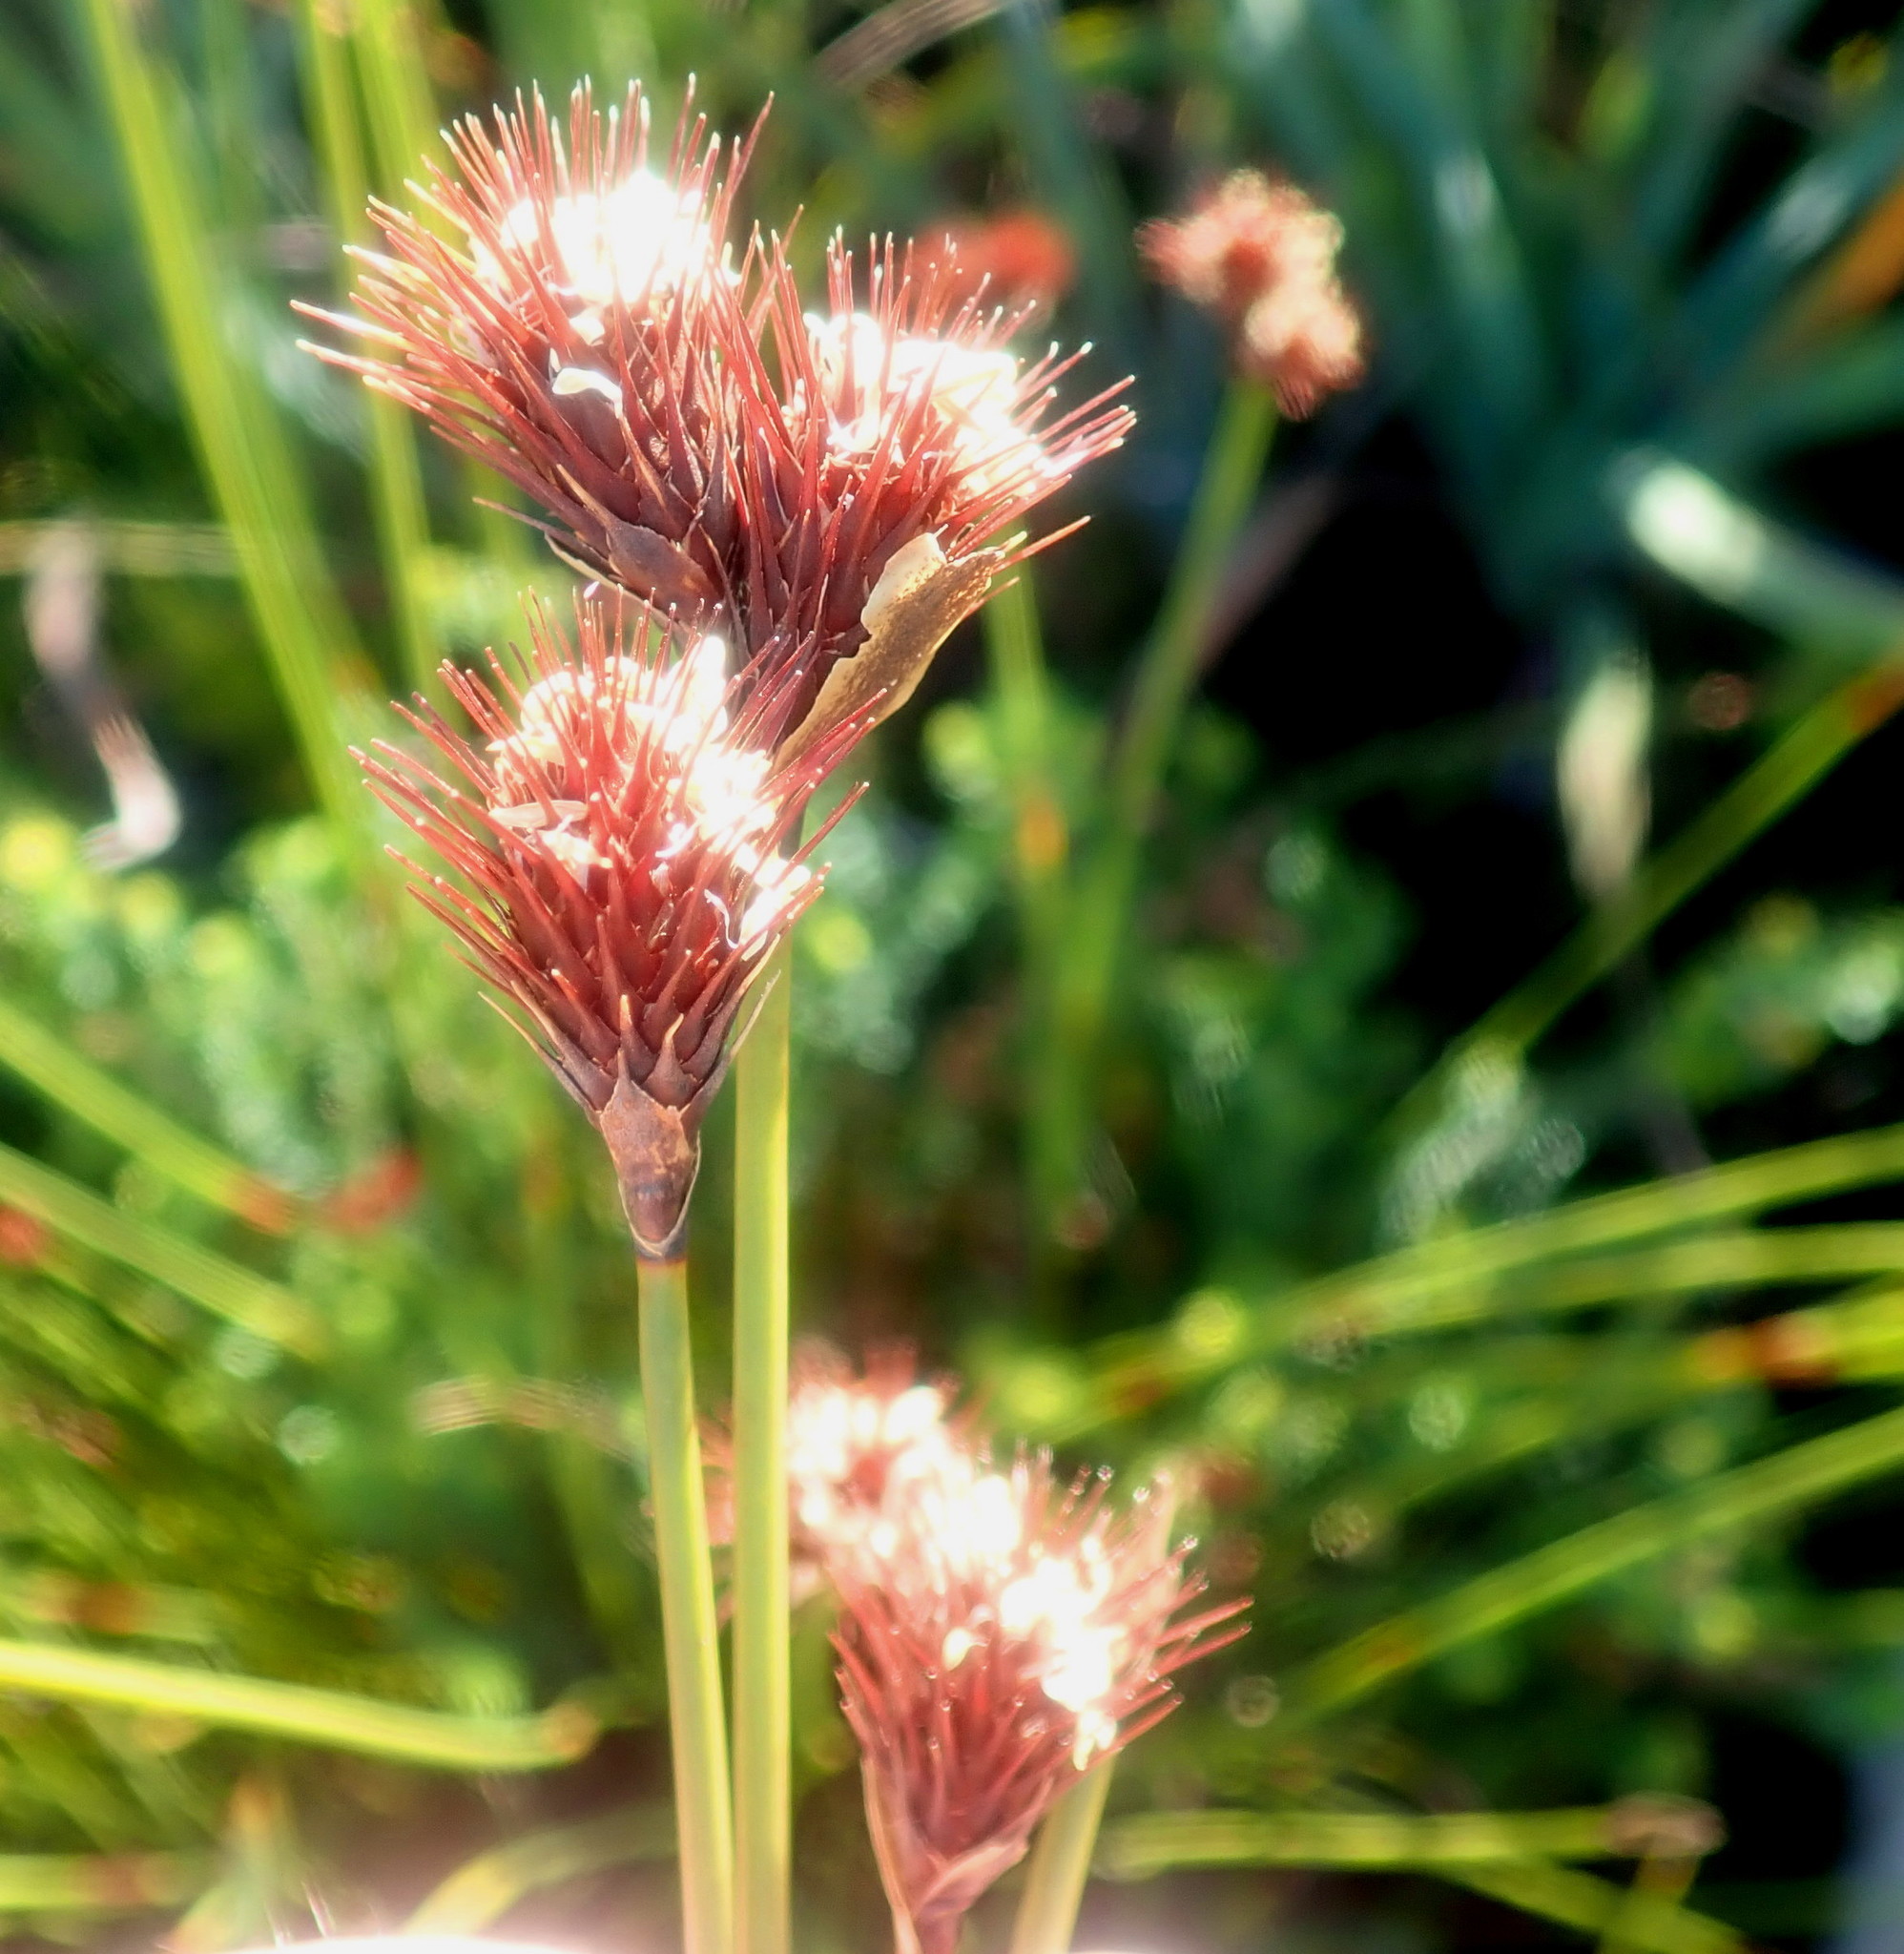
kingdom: Plantae
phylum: Tracheophyta
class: Liliopsida
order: Poales
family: Restionaceae
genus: Hypodiscus
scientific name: Hypodiscus aristatus
